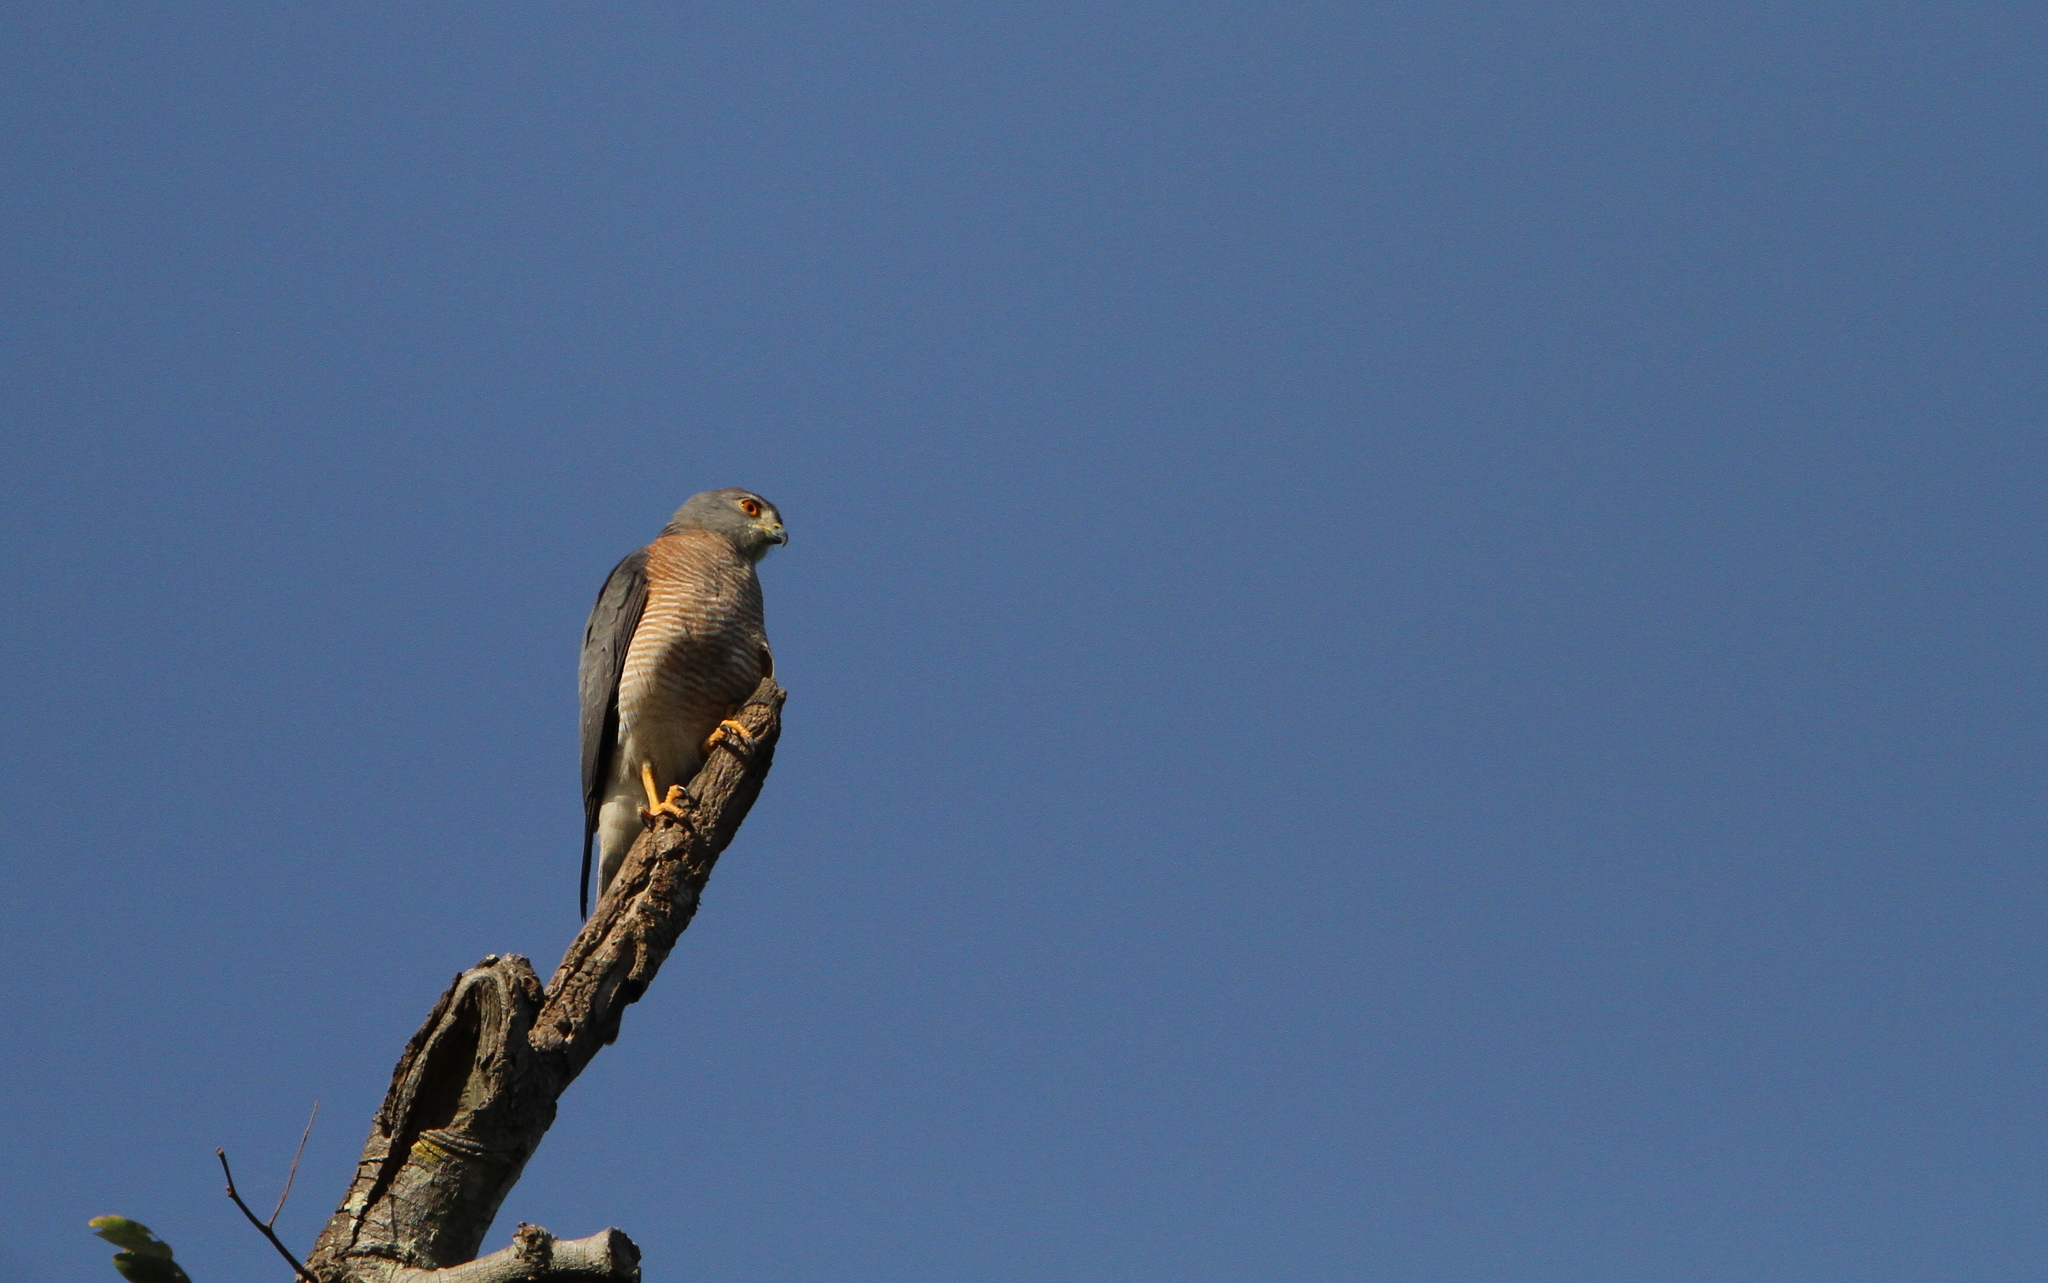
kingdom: Animalia
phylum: Chordata
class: Aves
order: Accipitriformes
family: Accipitridae
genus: Accipiter
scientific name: Accipiter badius
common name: Shikra
